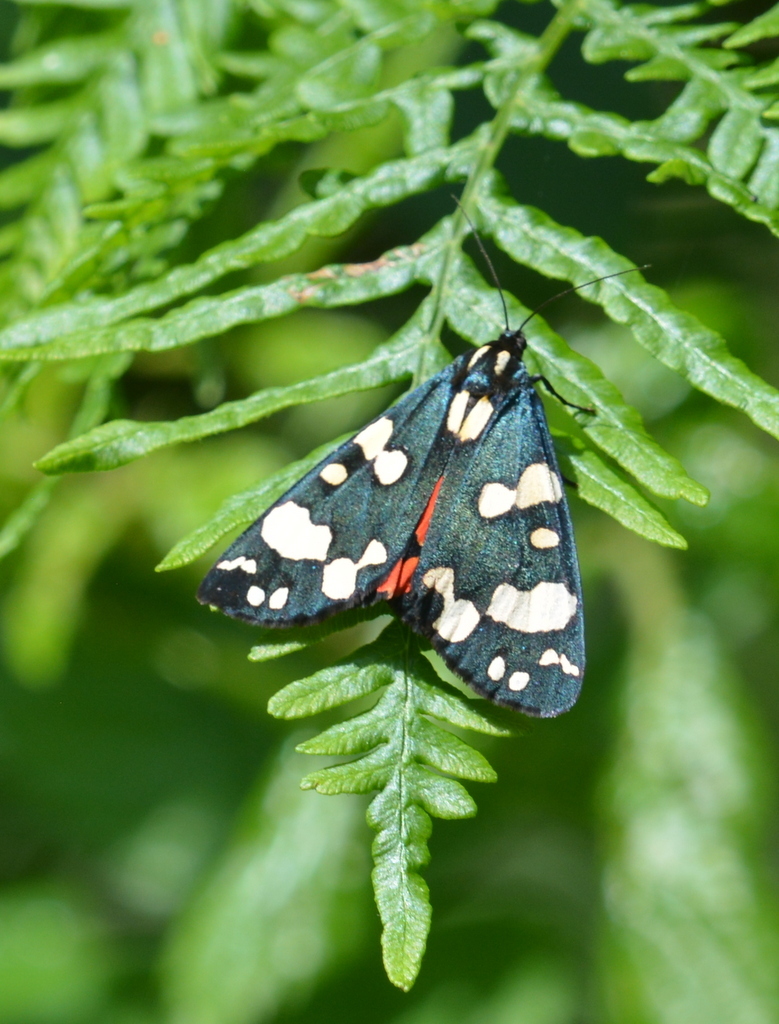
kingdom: Animalia
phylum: Arthropoda
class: Insecta
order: Lepidoptera
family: Erebidae
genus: Callimorpha
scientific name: Callimorpha dominula
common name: Scarlet tiger
